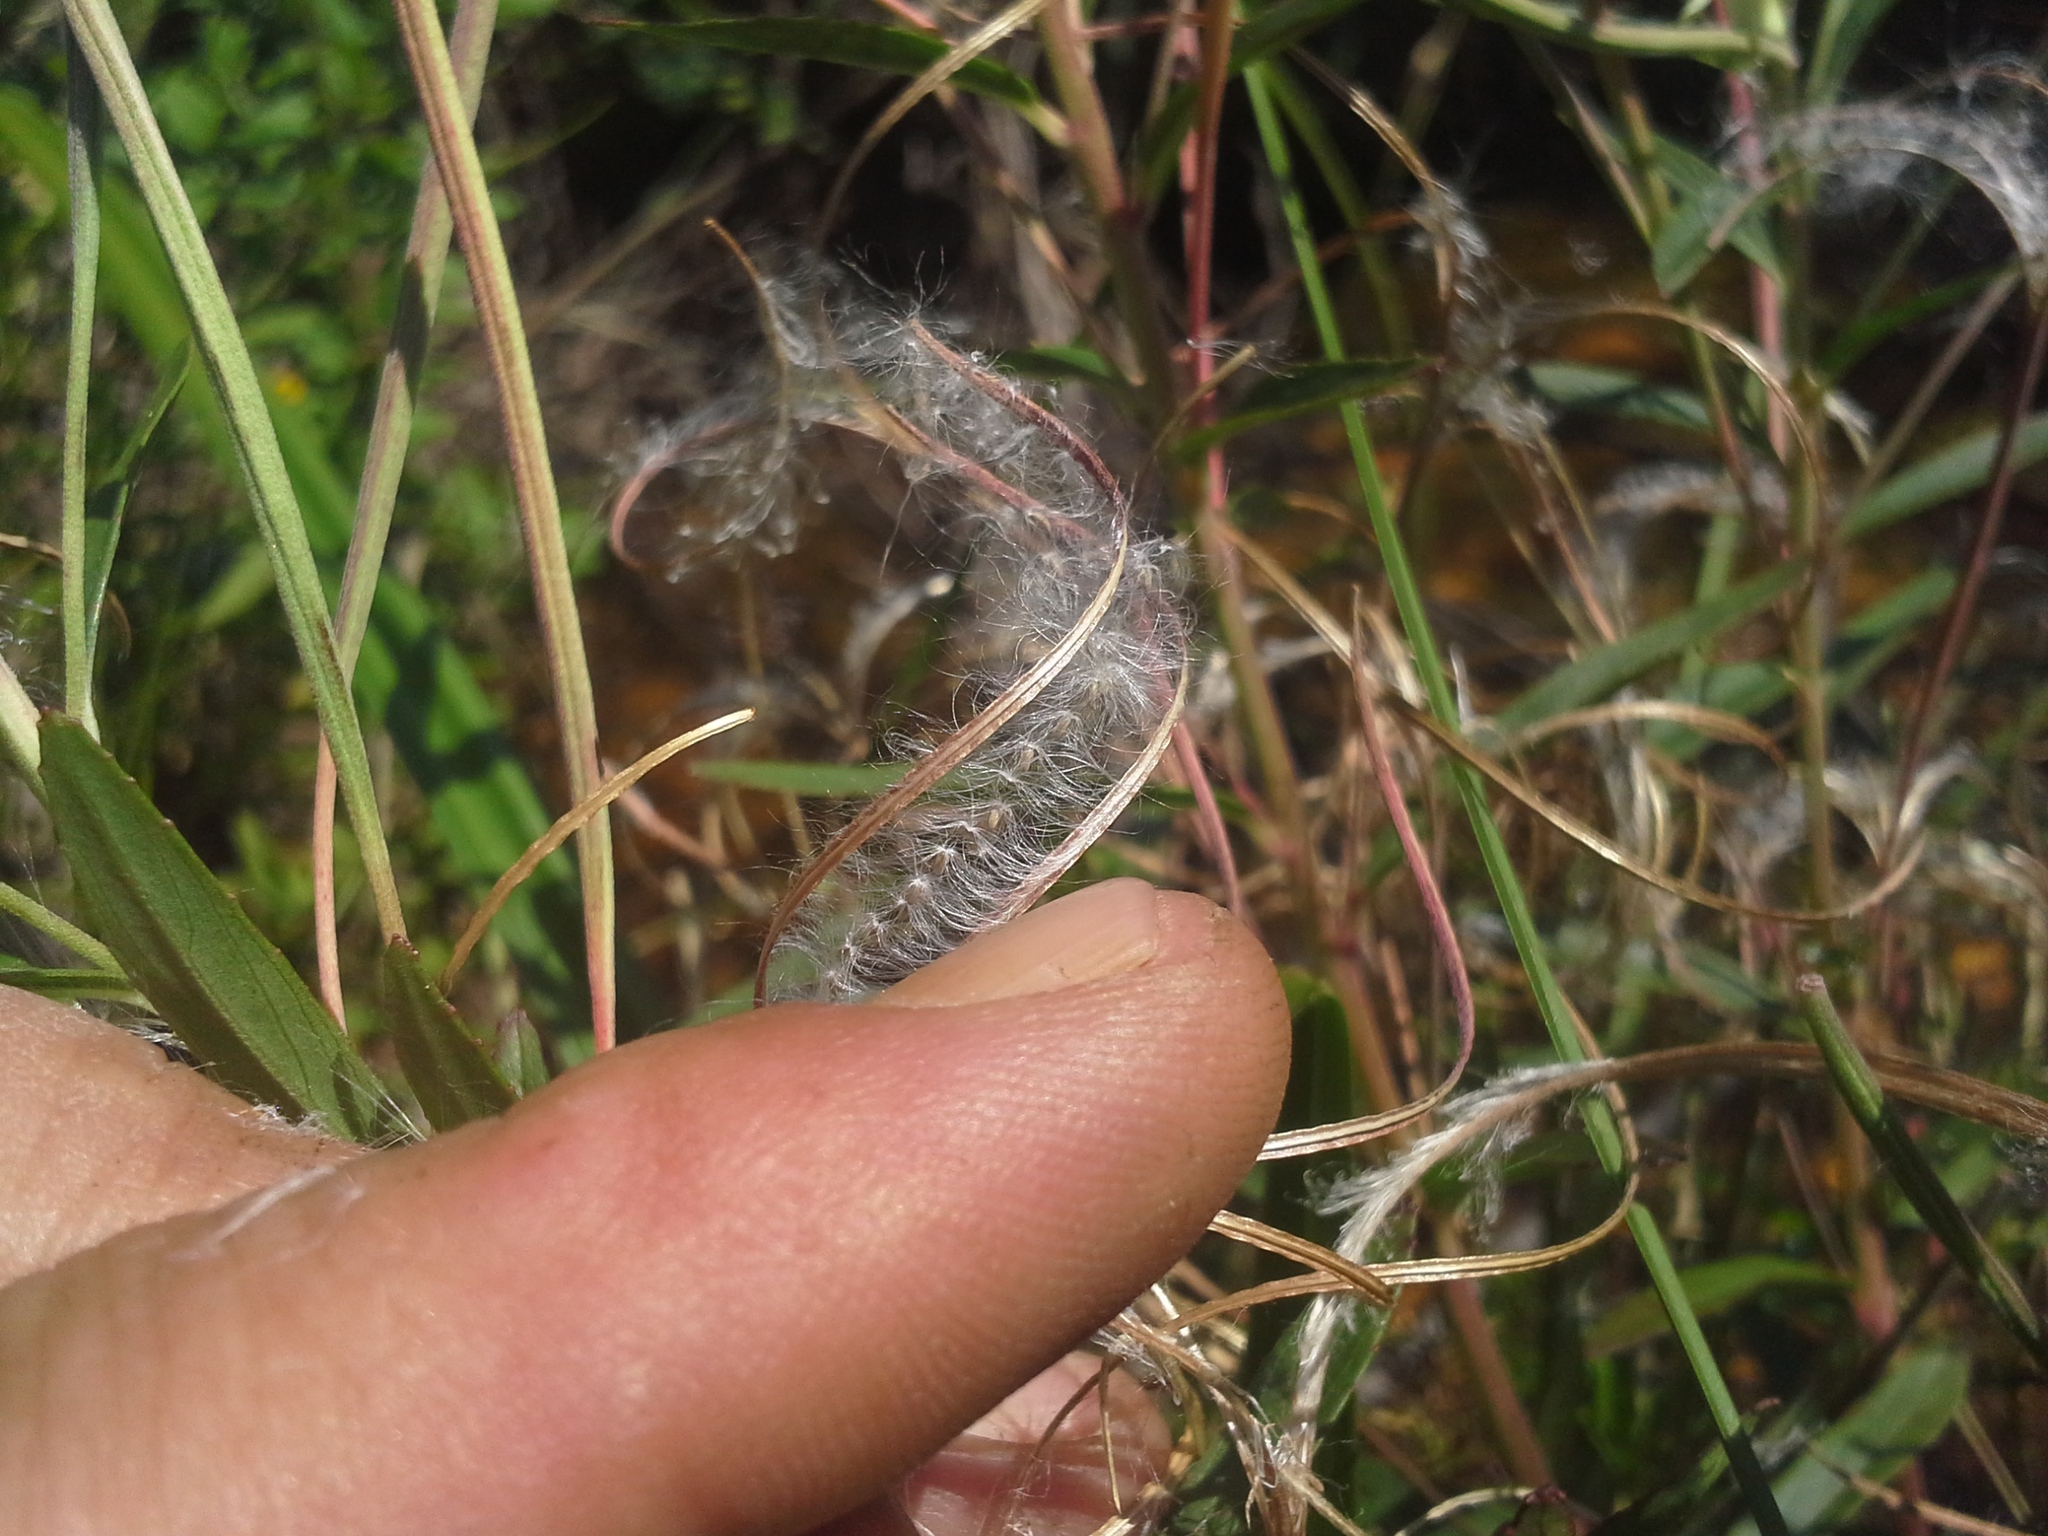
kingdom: Plantae
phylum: Tracheophyta
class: Magnoliopsida
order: Myrtales
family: Onagraceae
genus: Epilobium
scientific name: Epilobium salignum
